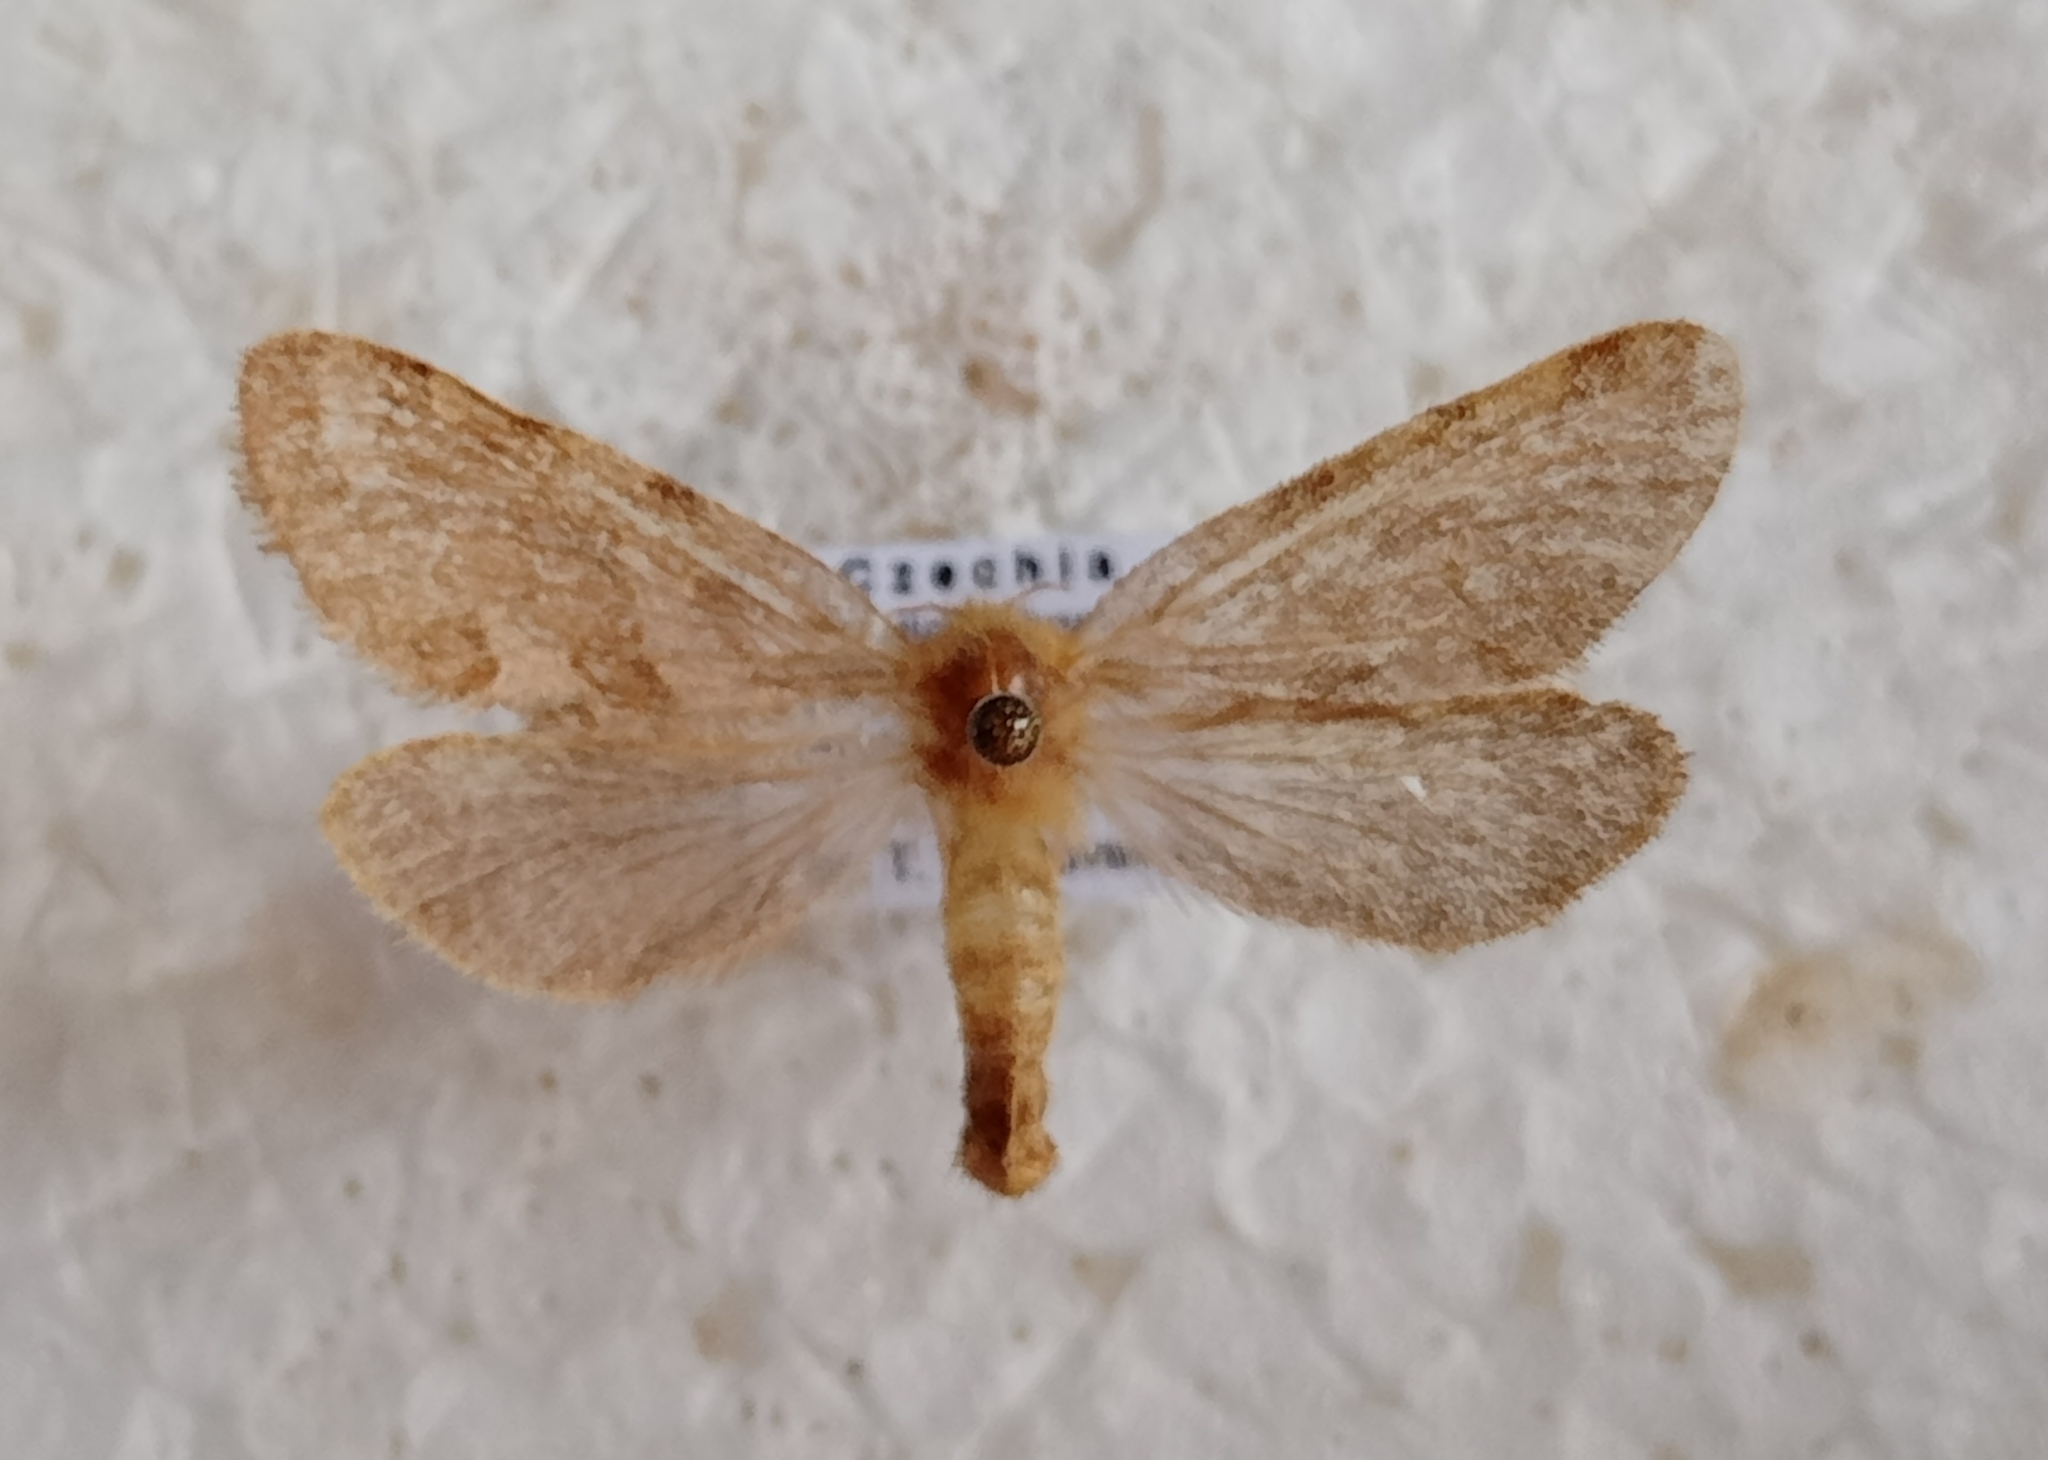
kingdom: Animalia
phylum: Arthropoda
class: Insecta
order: Lepidoptera
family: Hepialidae
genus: Phymatopus
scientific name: Phymatopus hecta
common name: Gold swift
